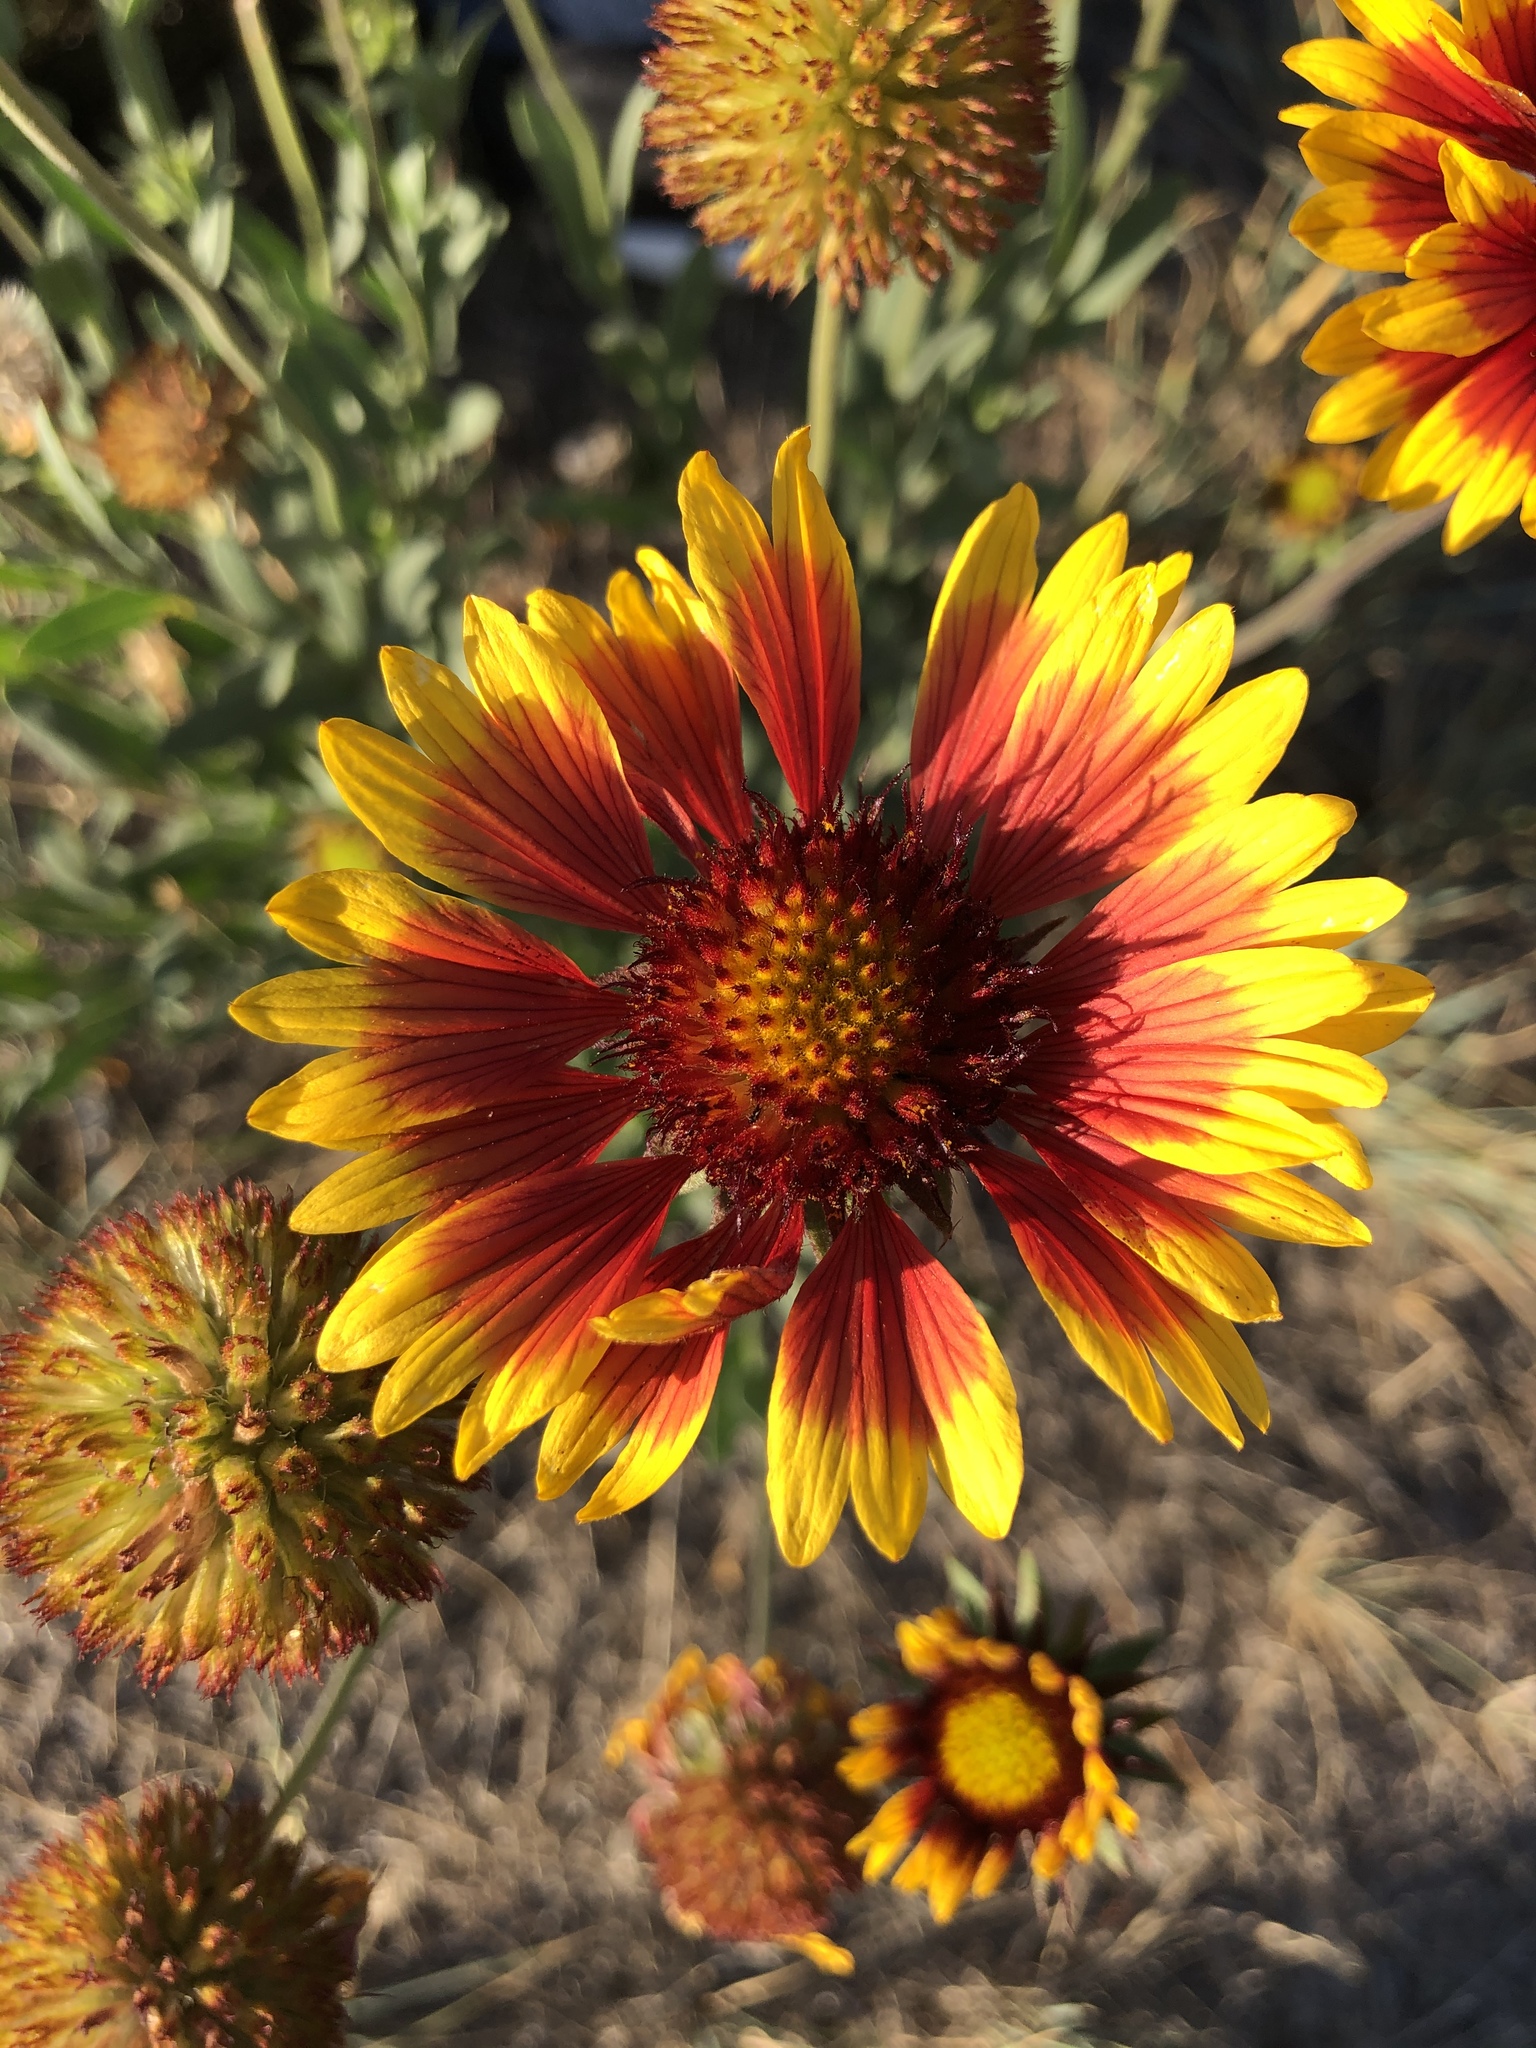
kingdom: Plantae
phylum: Tracheophyta
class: Magnoliopsida
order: Asterales
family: Asteraceae
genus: Gaillardia
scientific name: Gaillardia pulchella
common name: Firewheel
